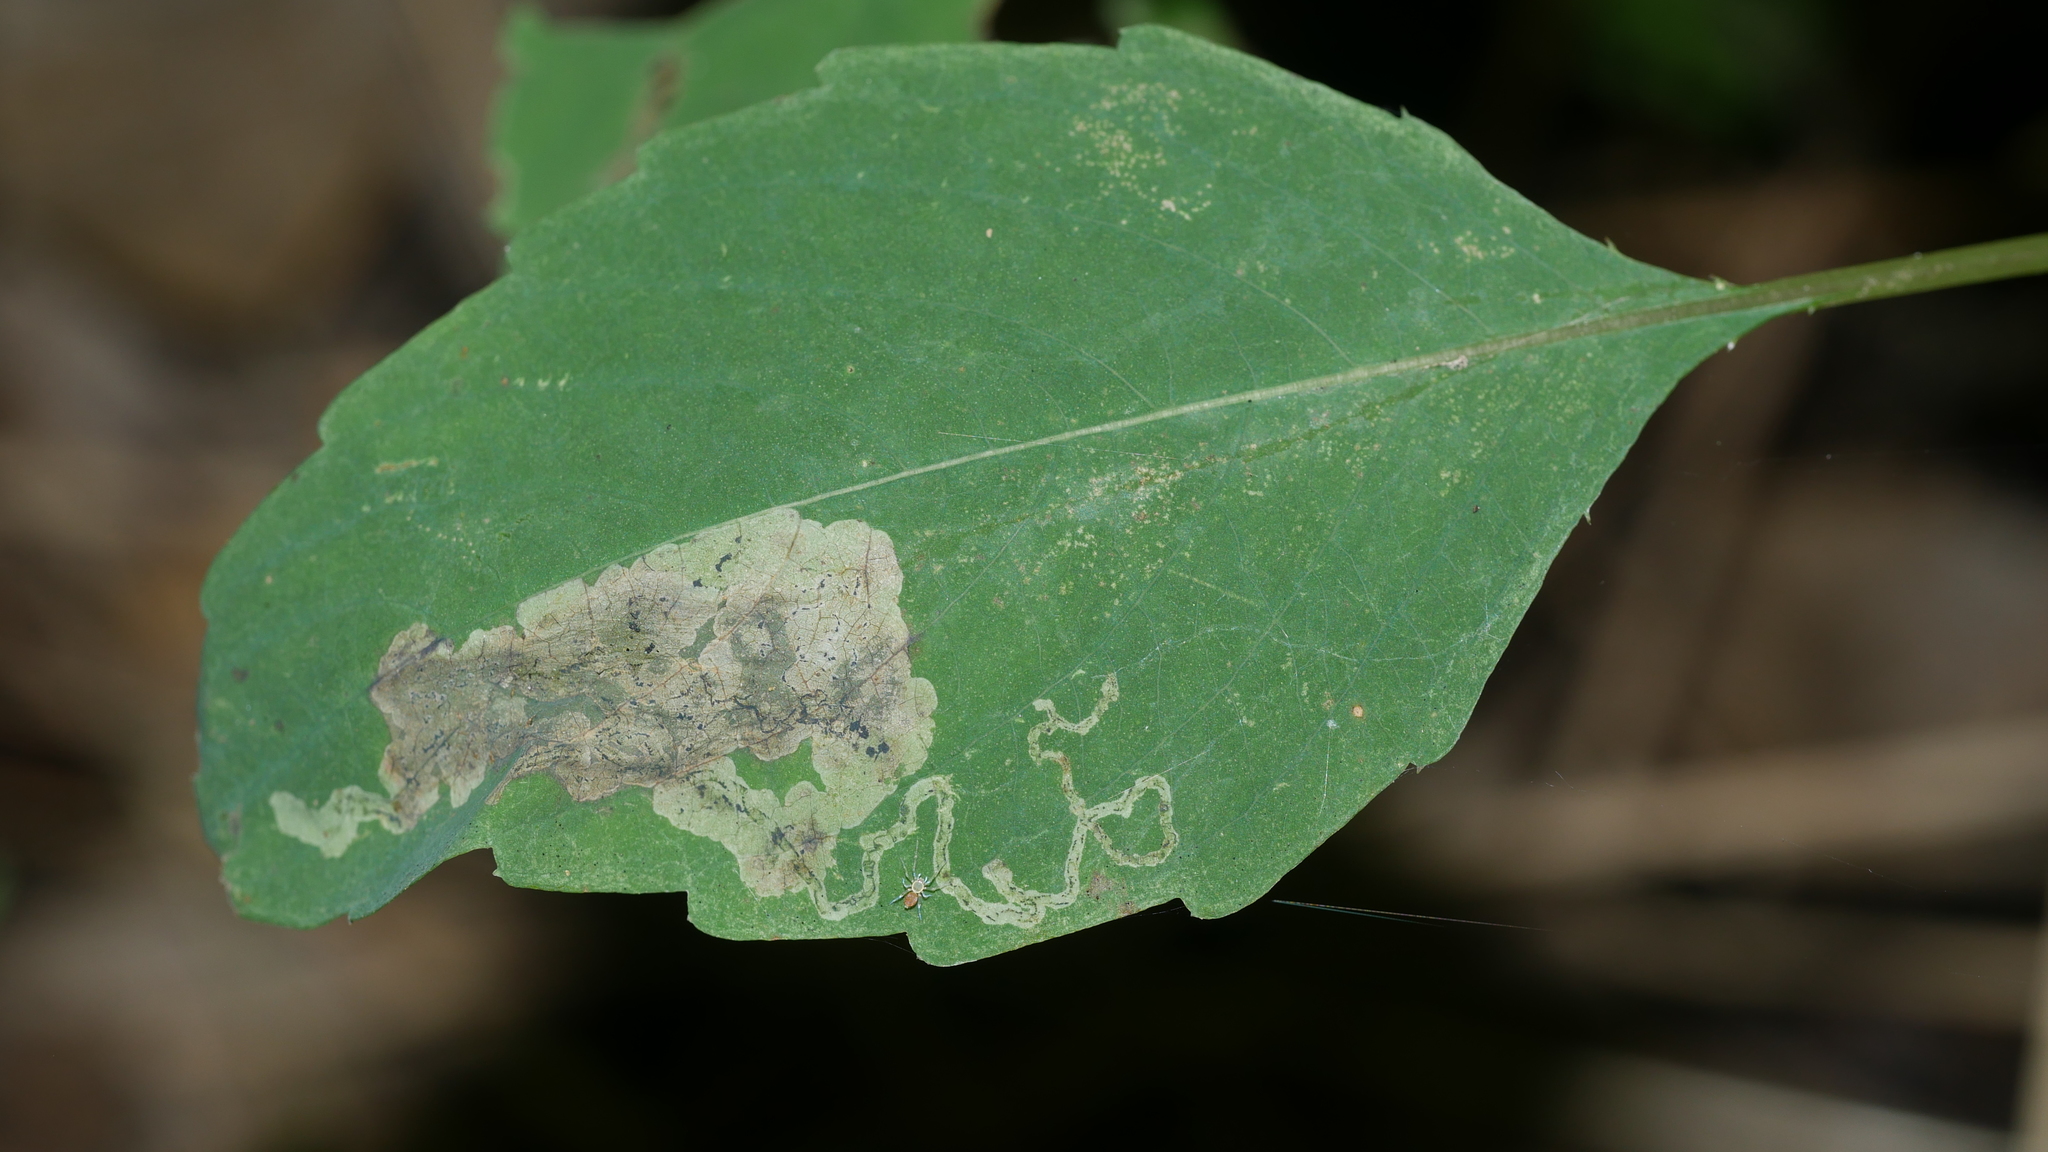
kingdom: Animalia
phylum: Arthropoda
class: Insecta
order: Diptera
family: Agromyzidae
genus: Phytoliriomyza
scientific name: Phytoliriomyza melampyga
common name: Jewelweed leaf-miner fly
